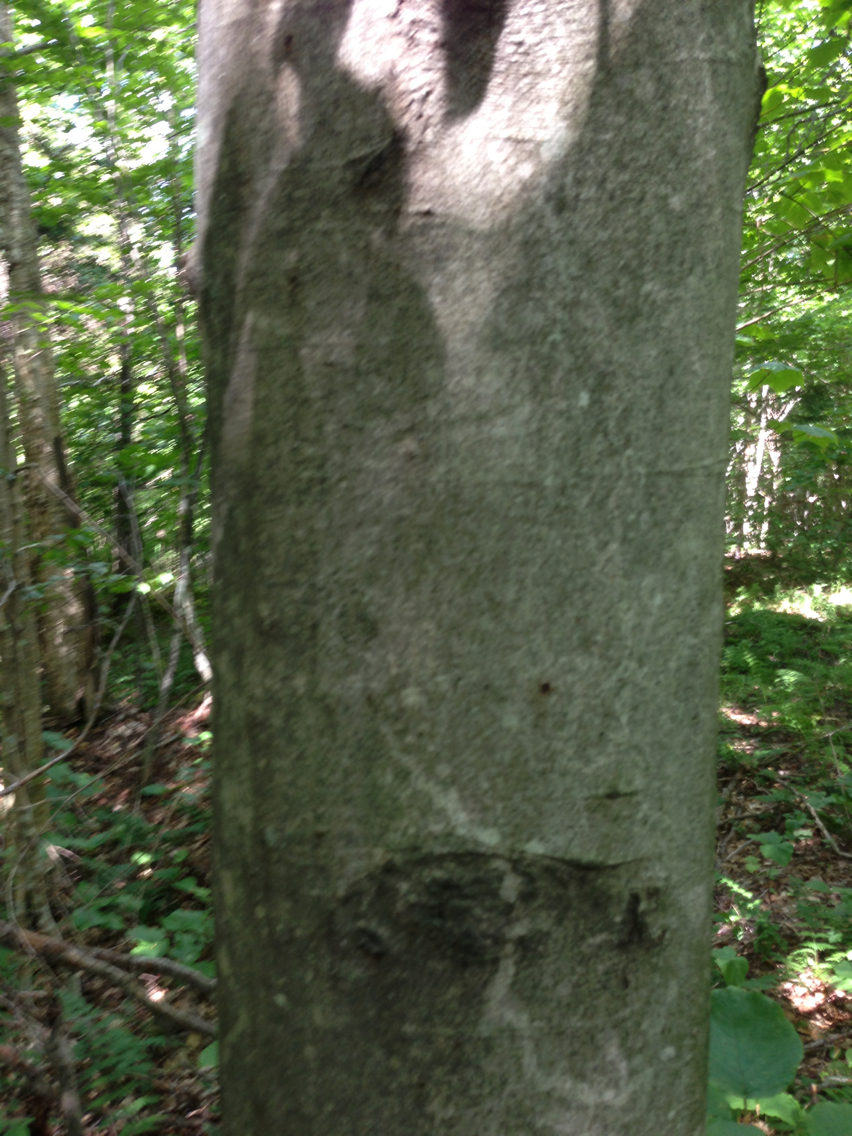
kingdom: Plantae
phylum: Tracheophyta
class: Magnoliopsida
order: Fagales
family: Fagaceae
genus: Fagus
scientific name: Fagus grandifolia
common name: American beech
